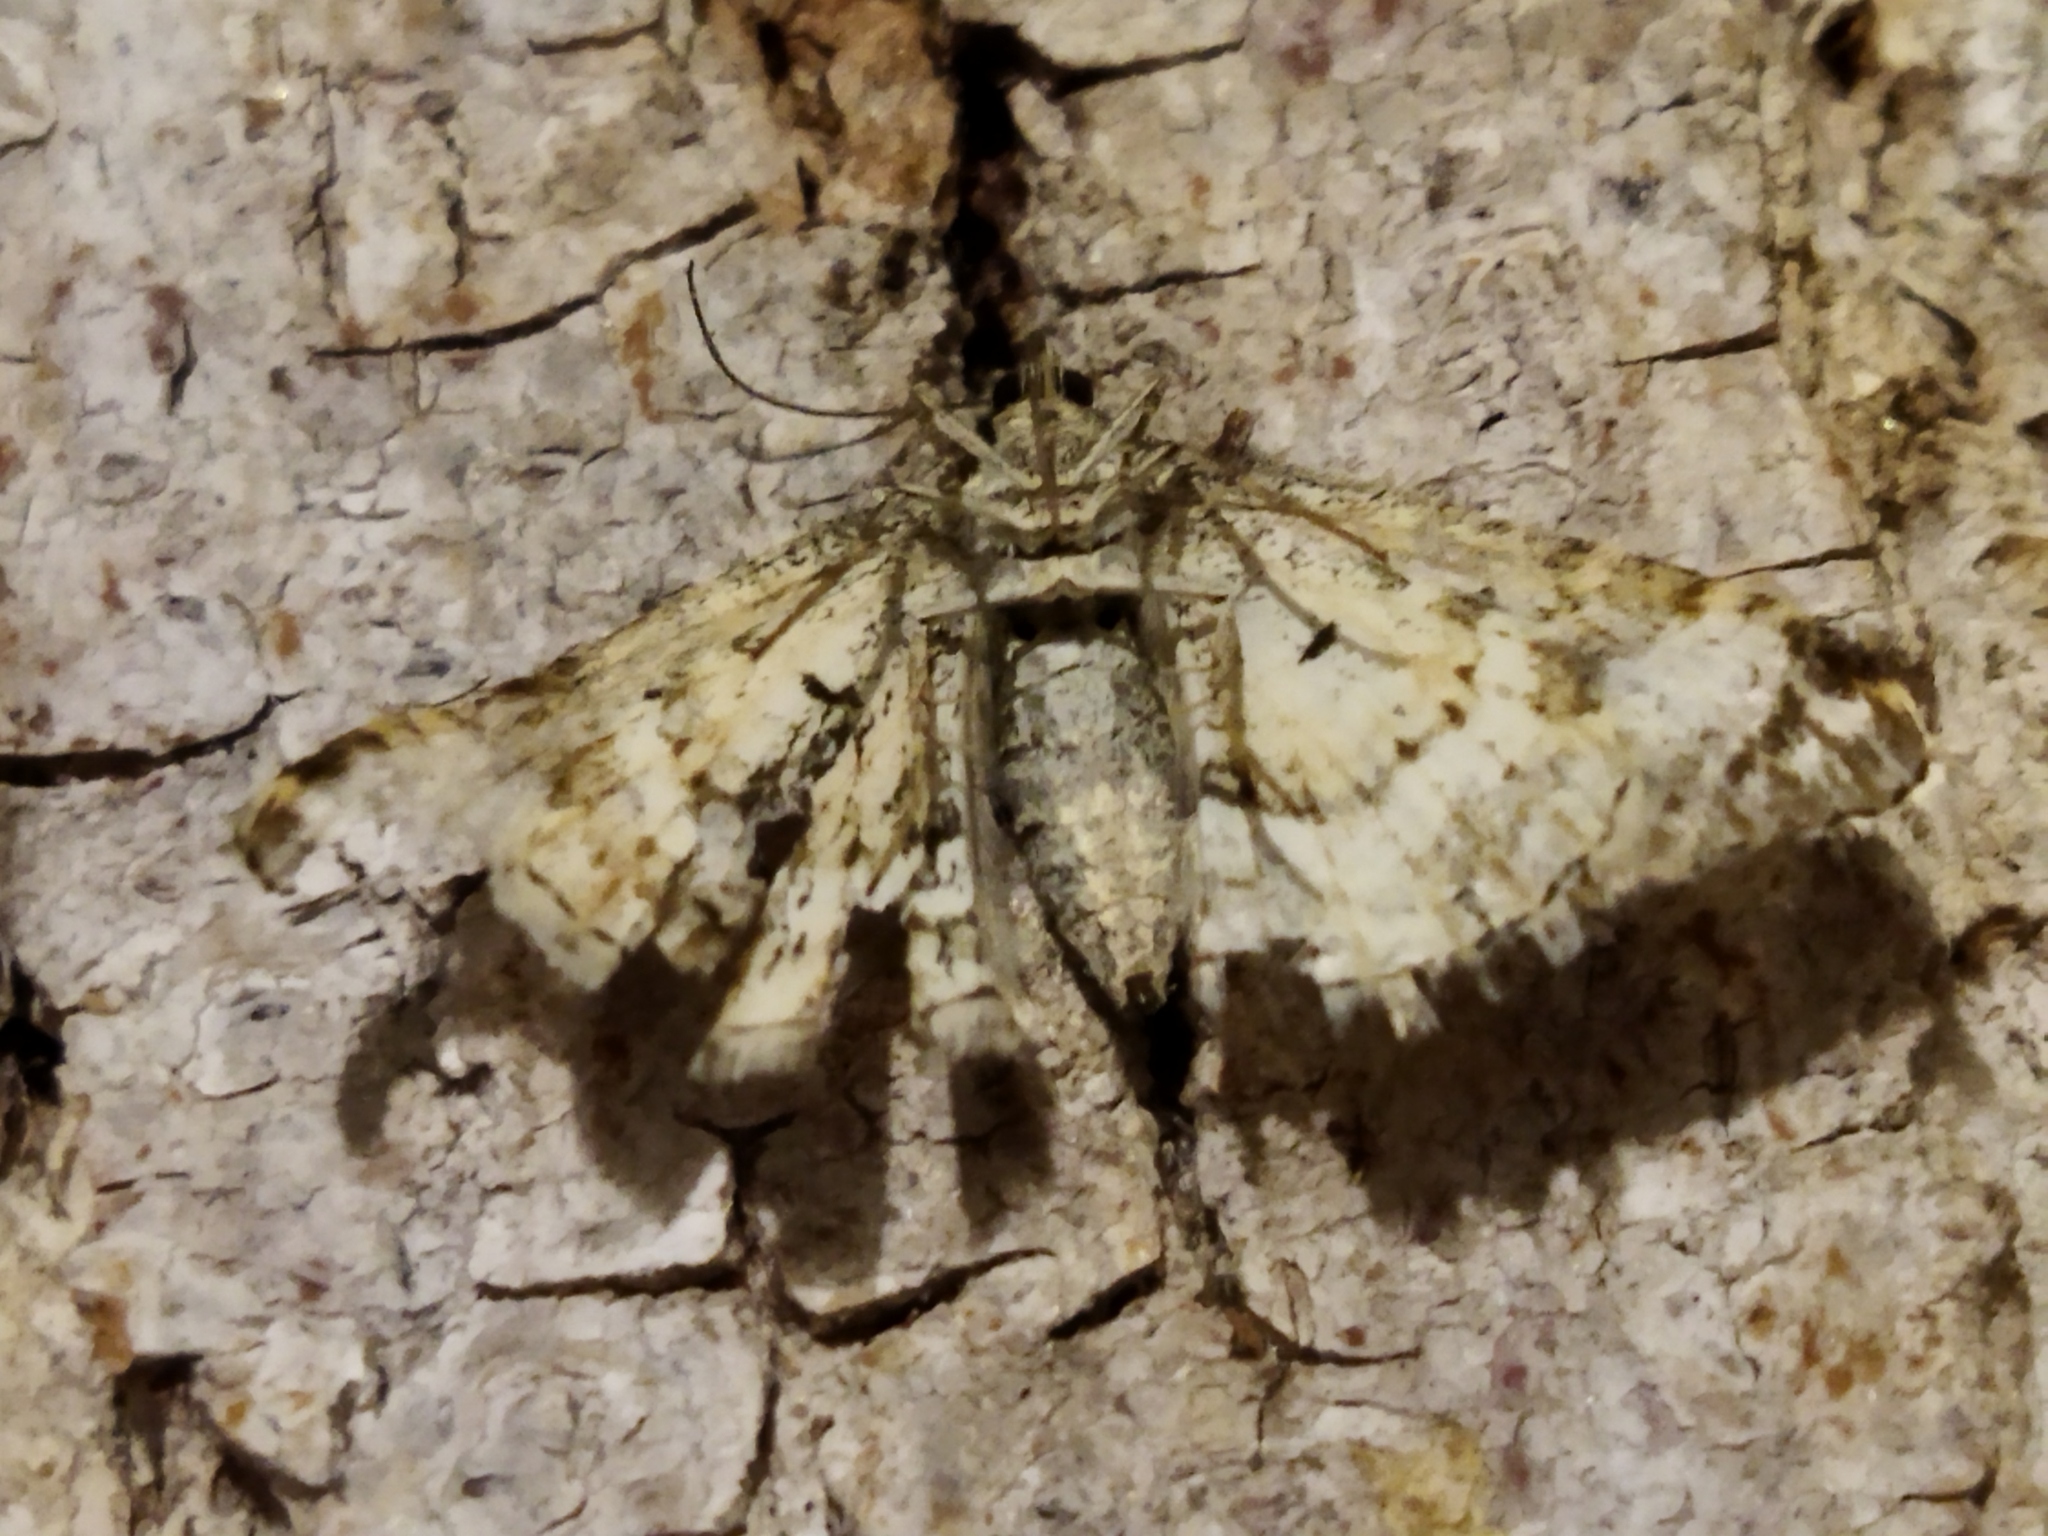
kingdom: Animalia
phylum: Arthropoda
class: Insecta
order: Lepidoptera
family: Geometridae
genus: Epirrhoe
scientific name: Epirrhoe alternata
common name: Common carpet
